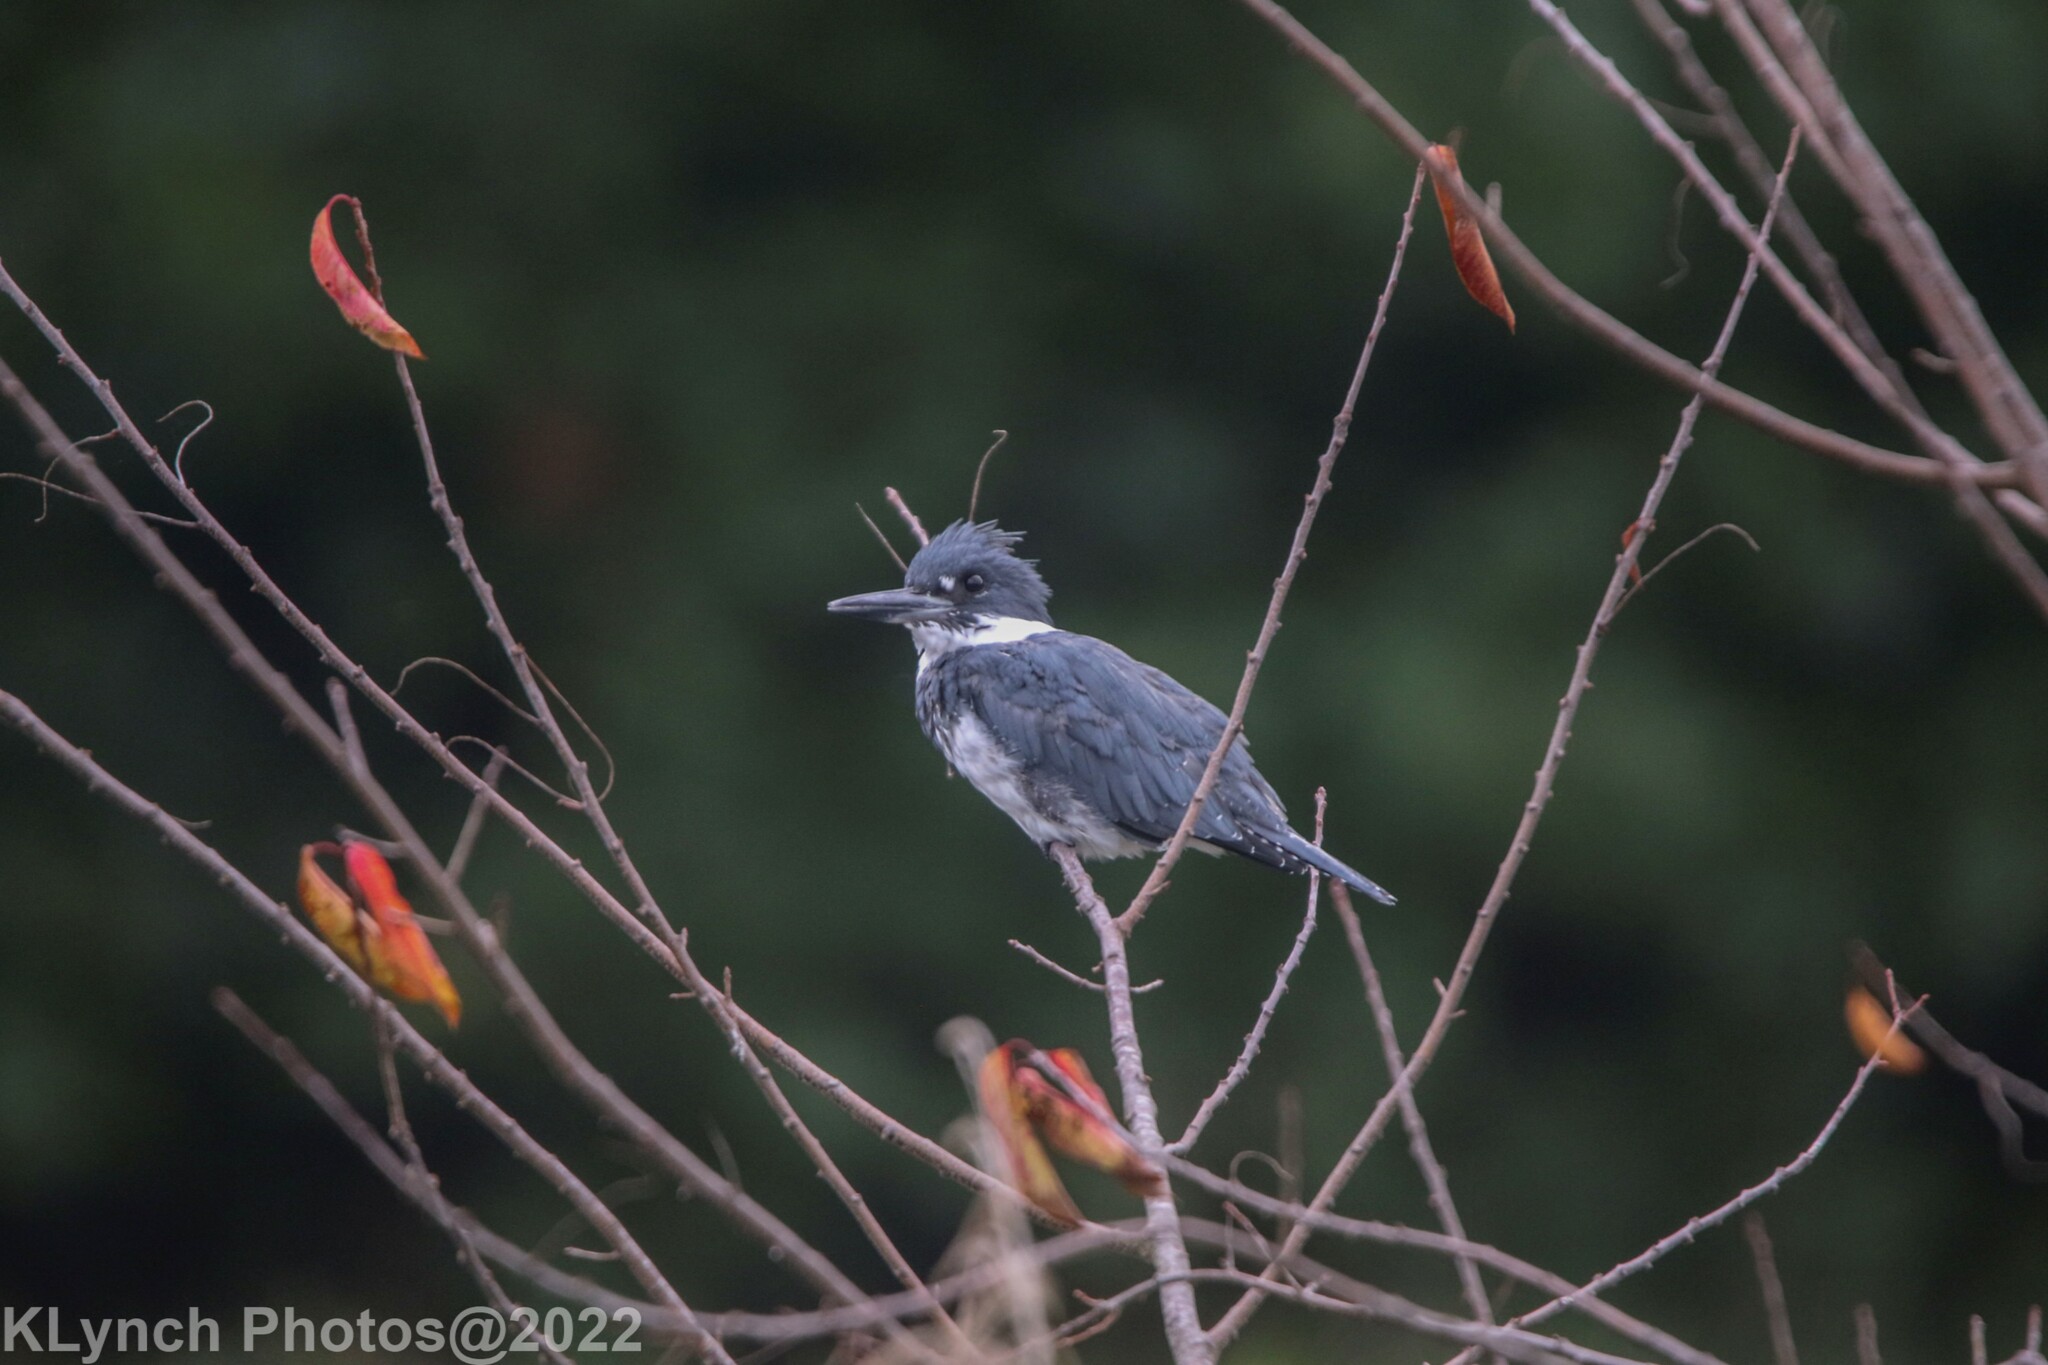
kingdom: Animalia
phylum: Chordata
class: Aves
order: Coraciiformes
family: Alcedinidae
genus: Megaceryle
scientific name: Megaceryle alcyon
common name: Belted kingfisher
